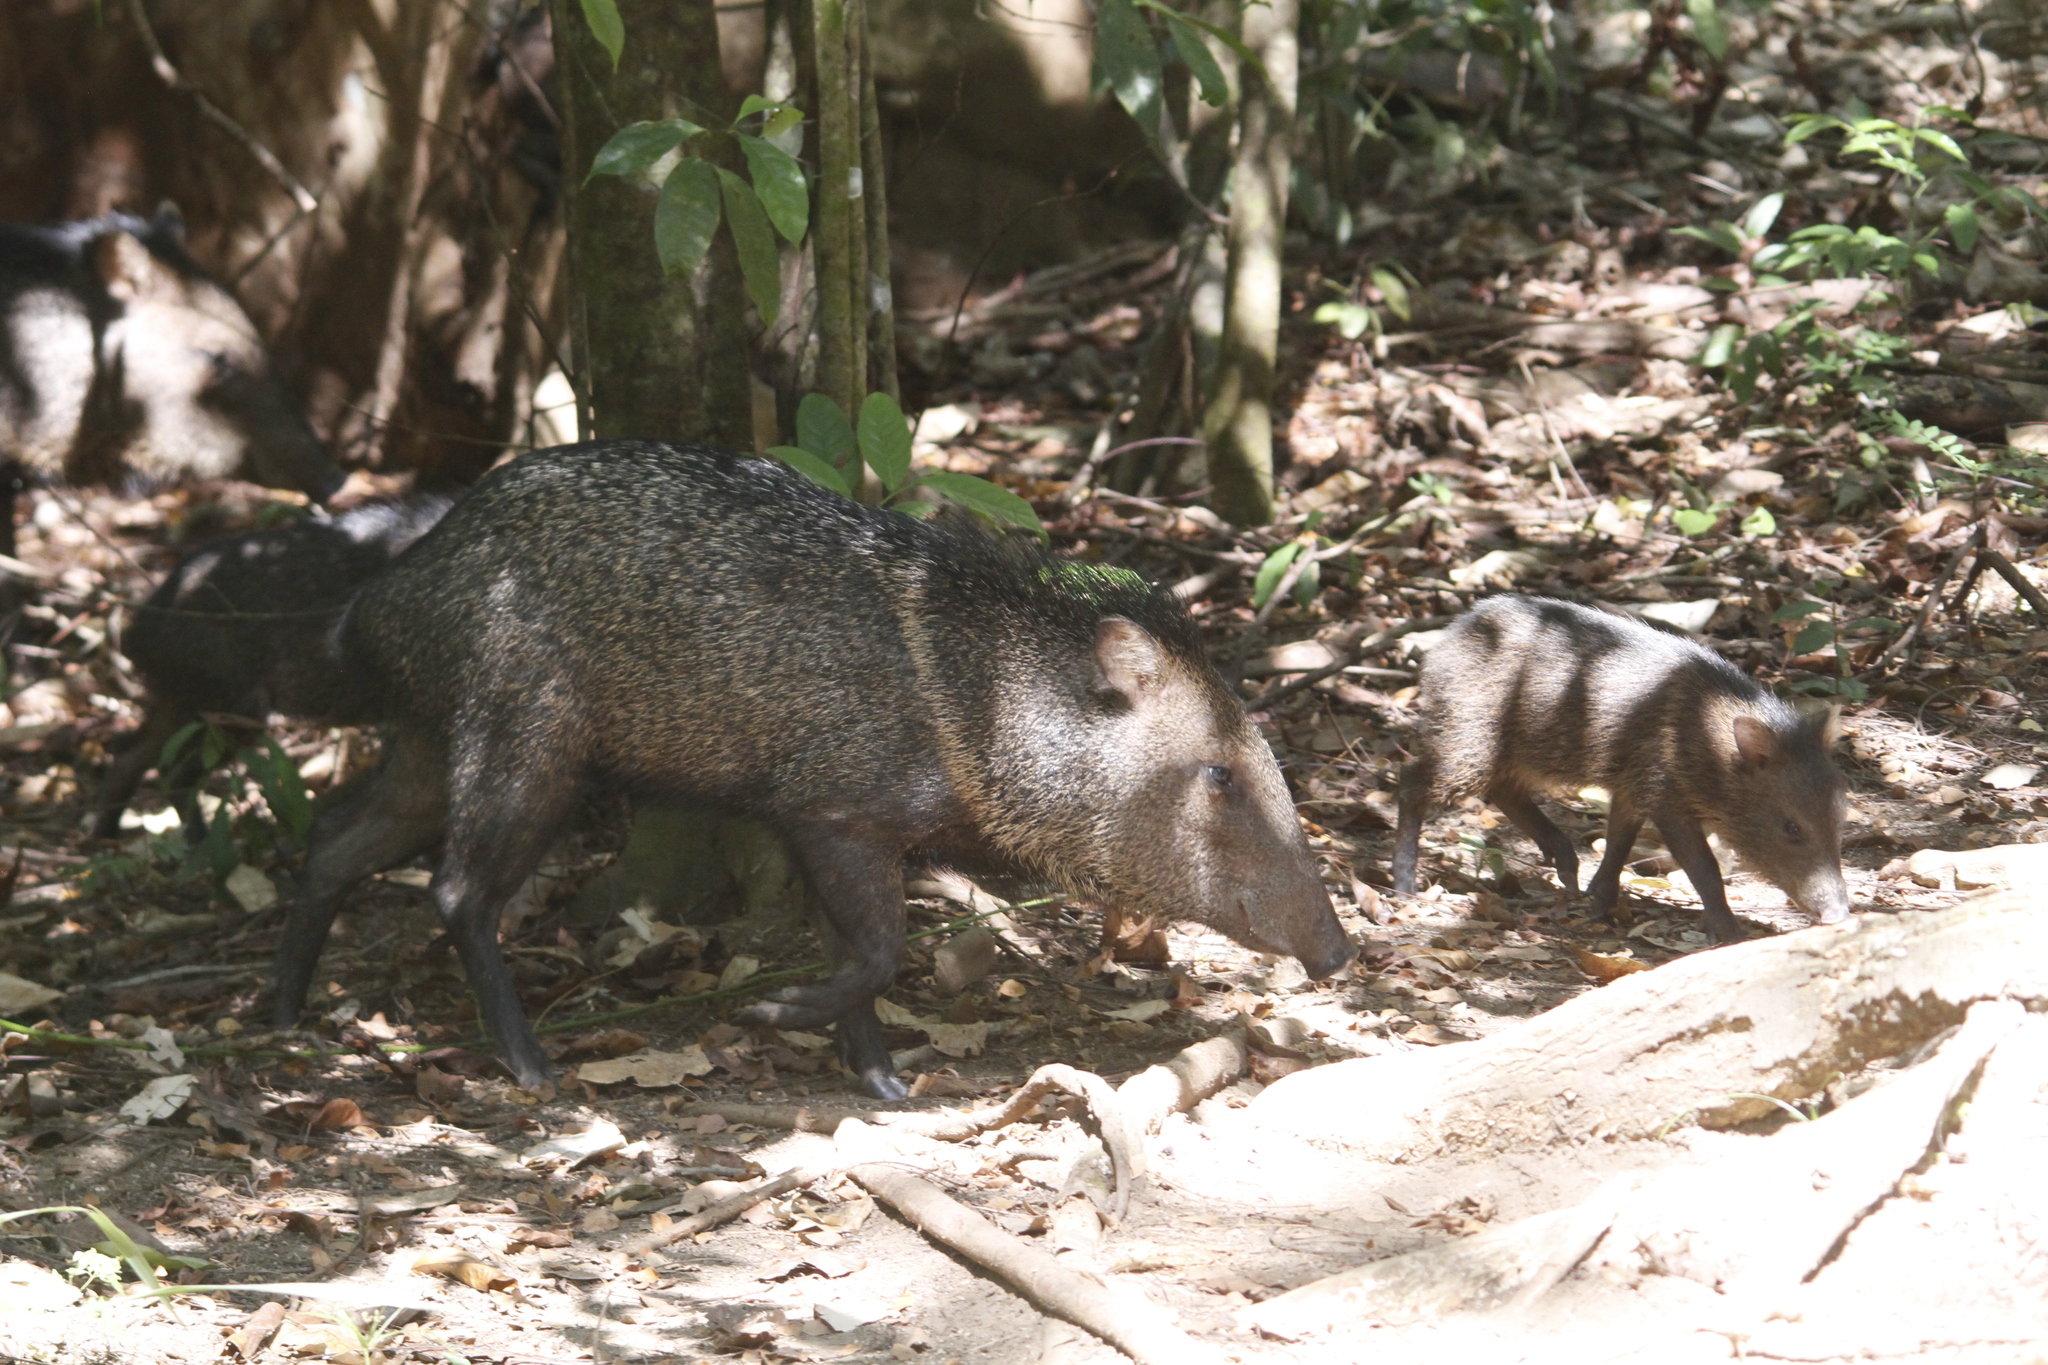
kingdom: Animalia
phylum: Chordata
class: Mammalia
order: Artiodactyla
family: Tayassuidae
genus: Pecari
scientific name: Pecari tajacu
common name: Collared peccary
